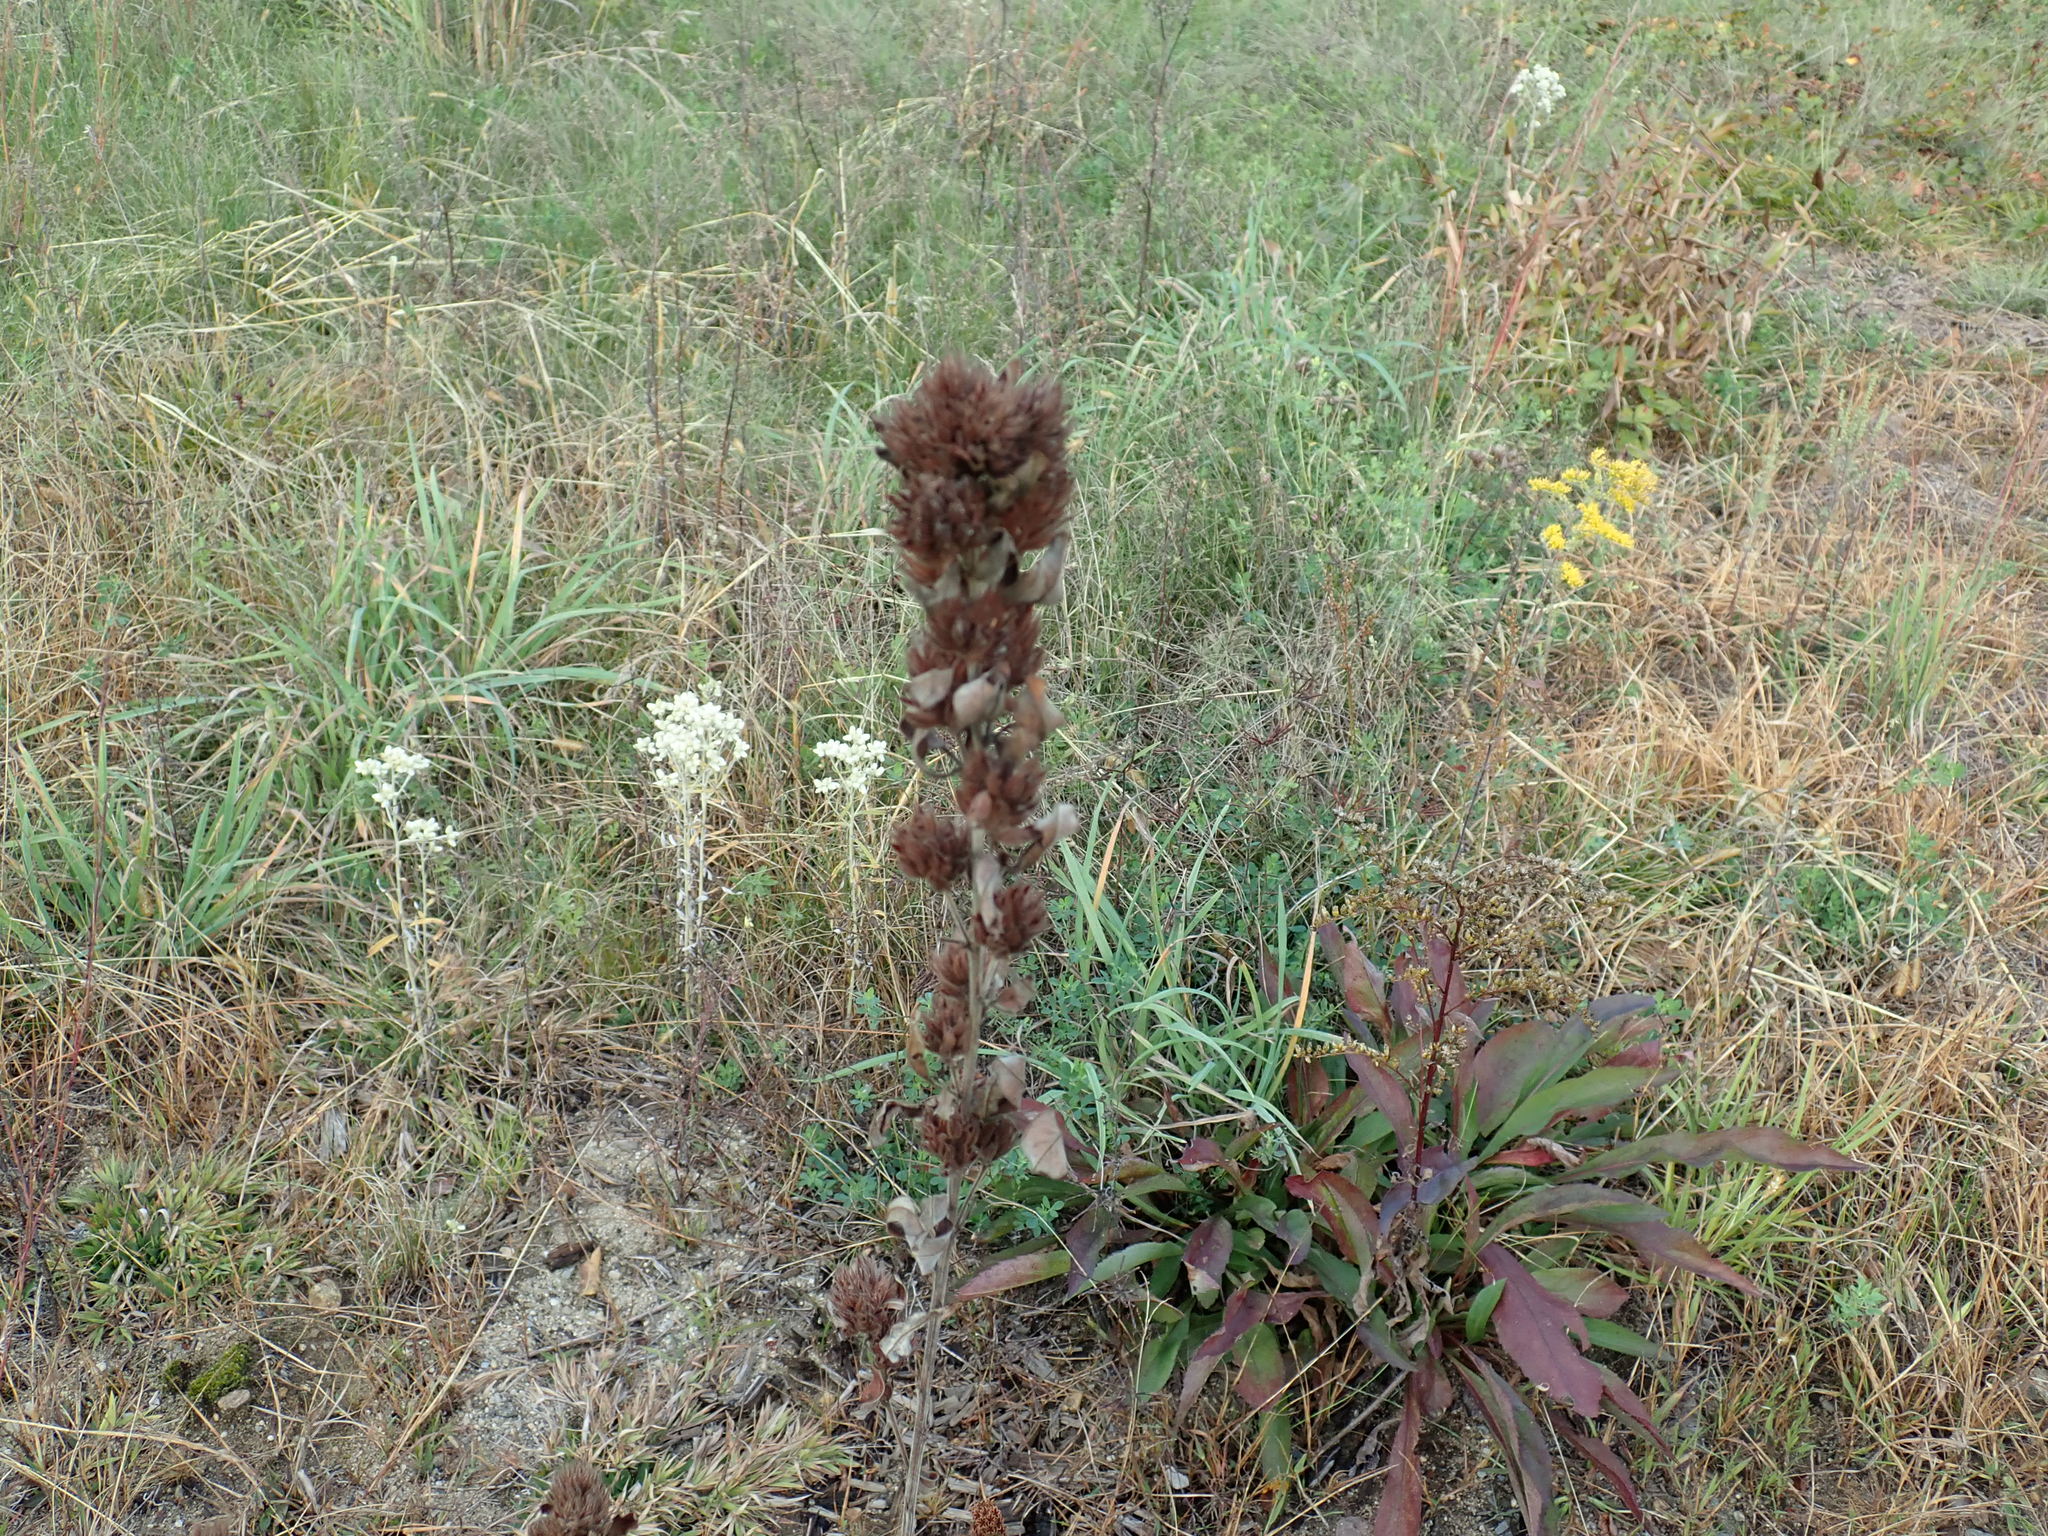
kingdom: Plantae
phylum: Tracheophyta
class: Magnoliopsida
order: Fabales
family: Fabaceae
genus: Lespedeza
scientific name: Lespedeza capitata
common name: Dusty clover
